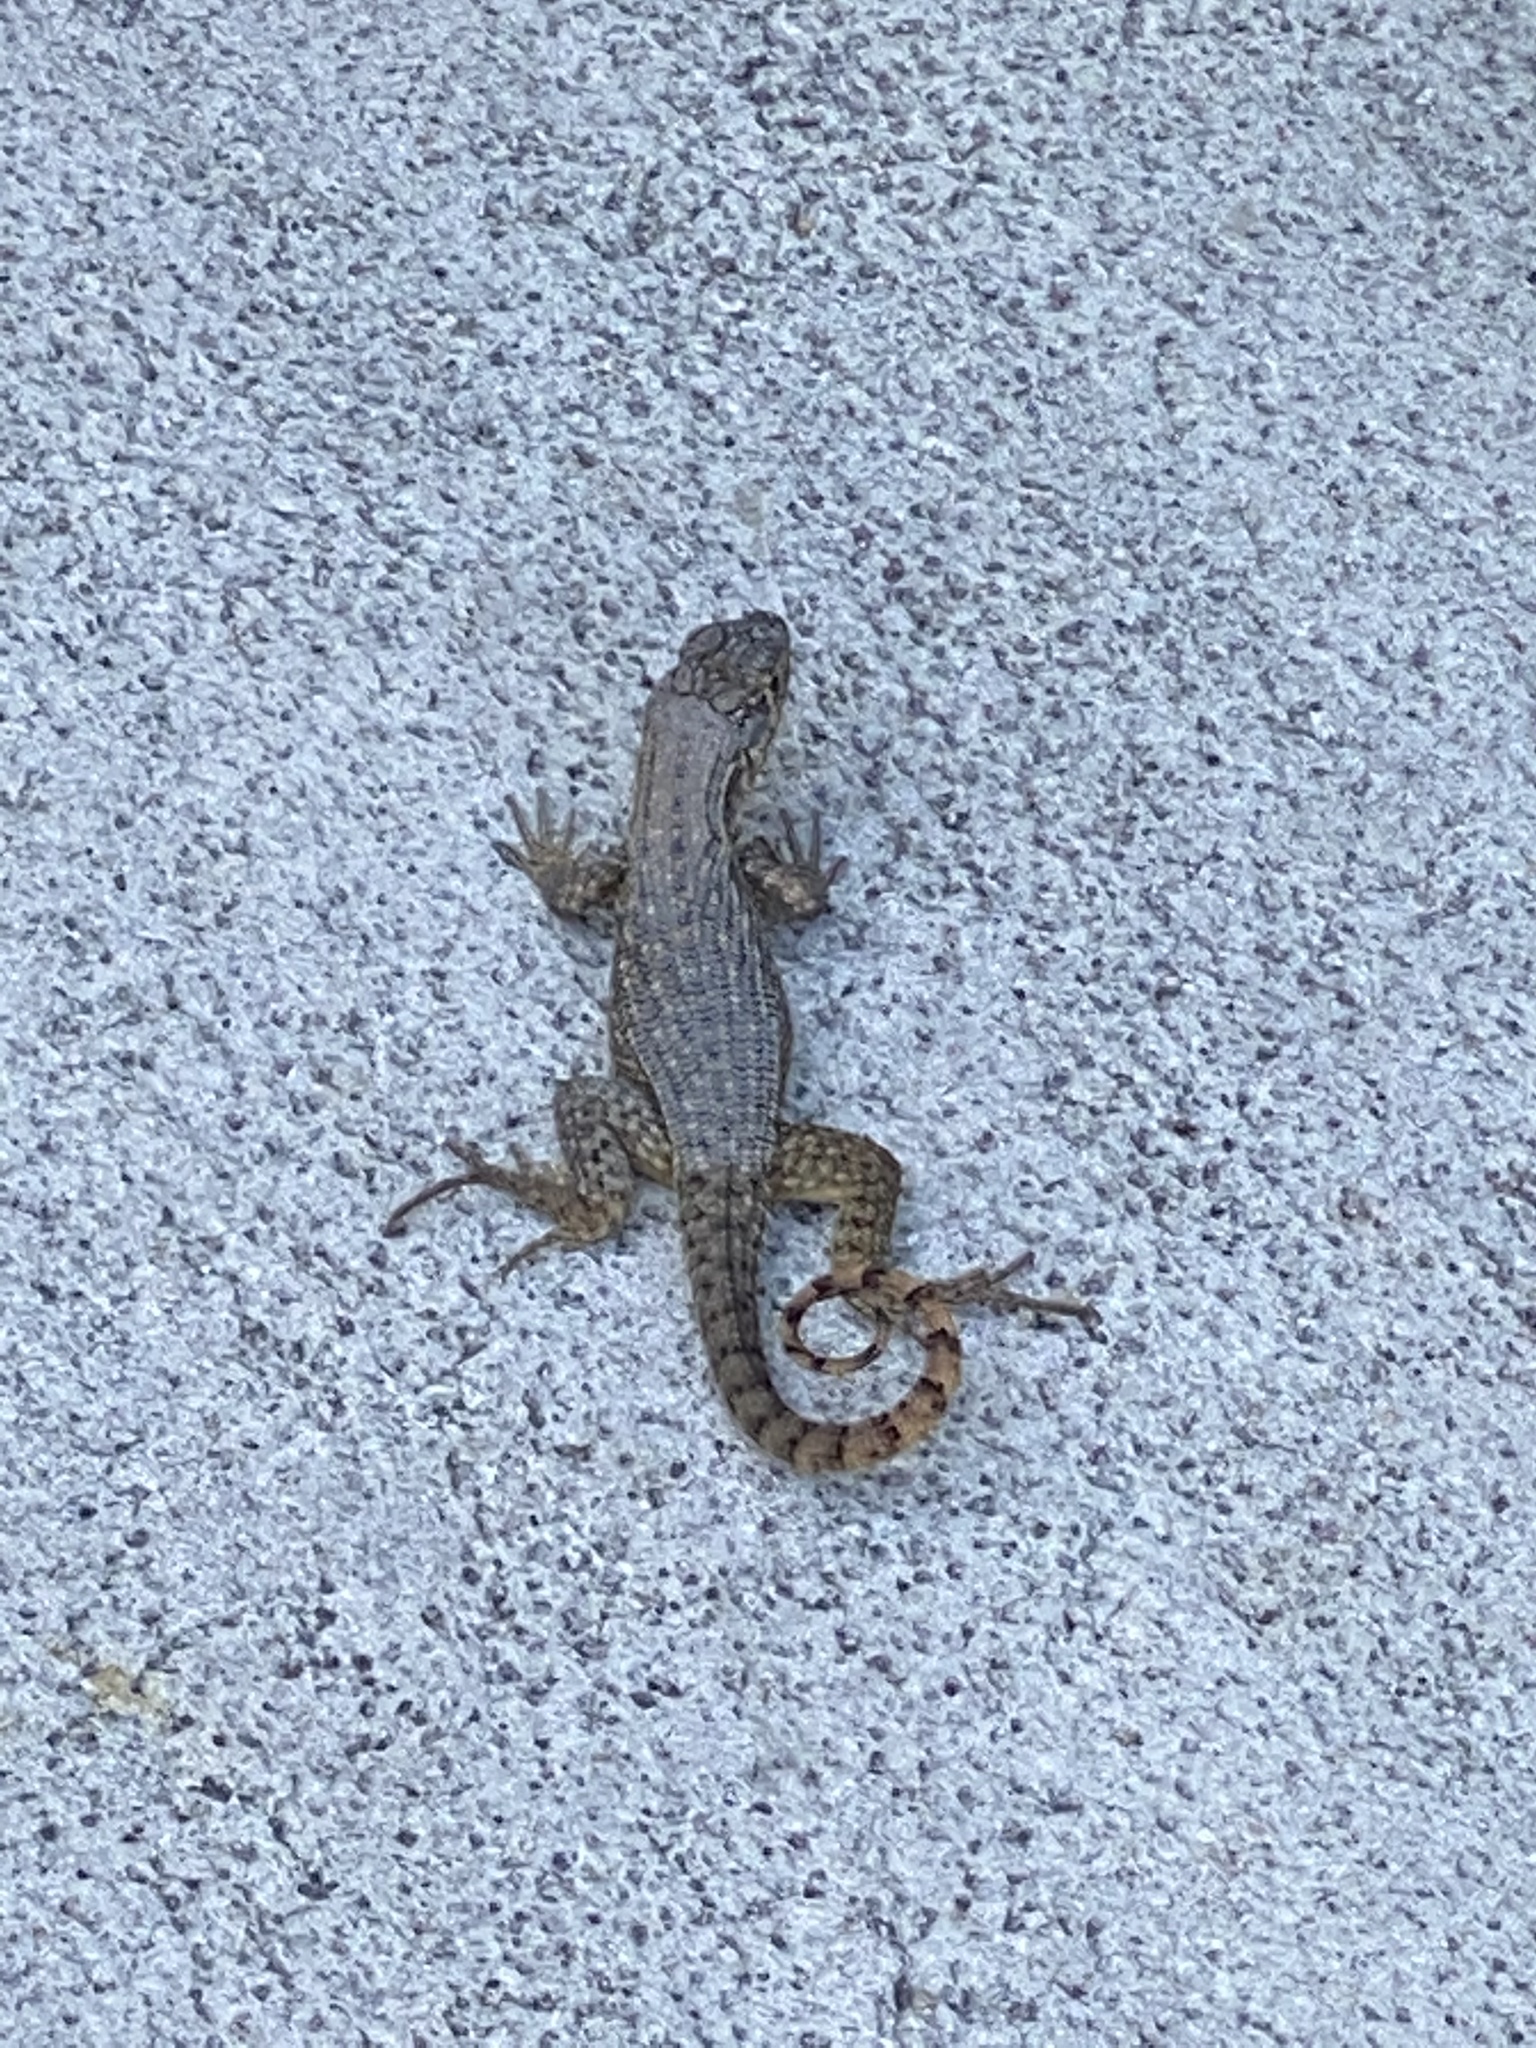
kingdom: Animalia
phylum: Chordata
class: Squamata
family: Leiocephalidae
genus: Leiocephalus
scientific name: Leiocephalus carinatus
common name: Northern curly-tailed lizard
